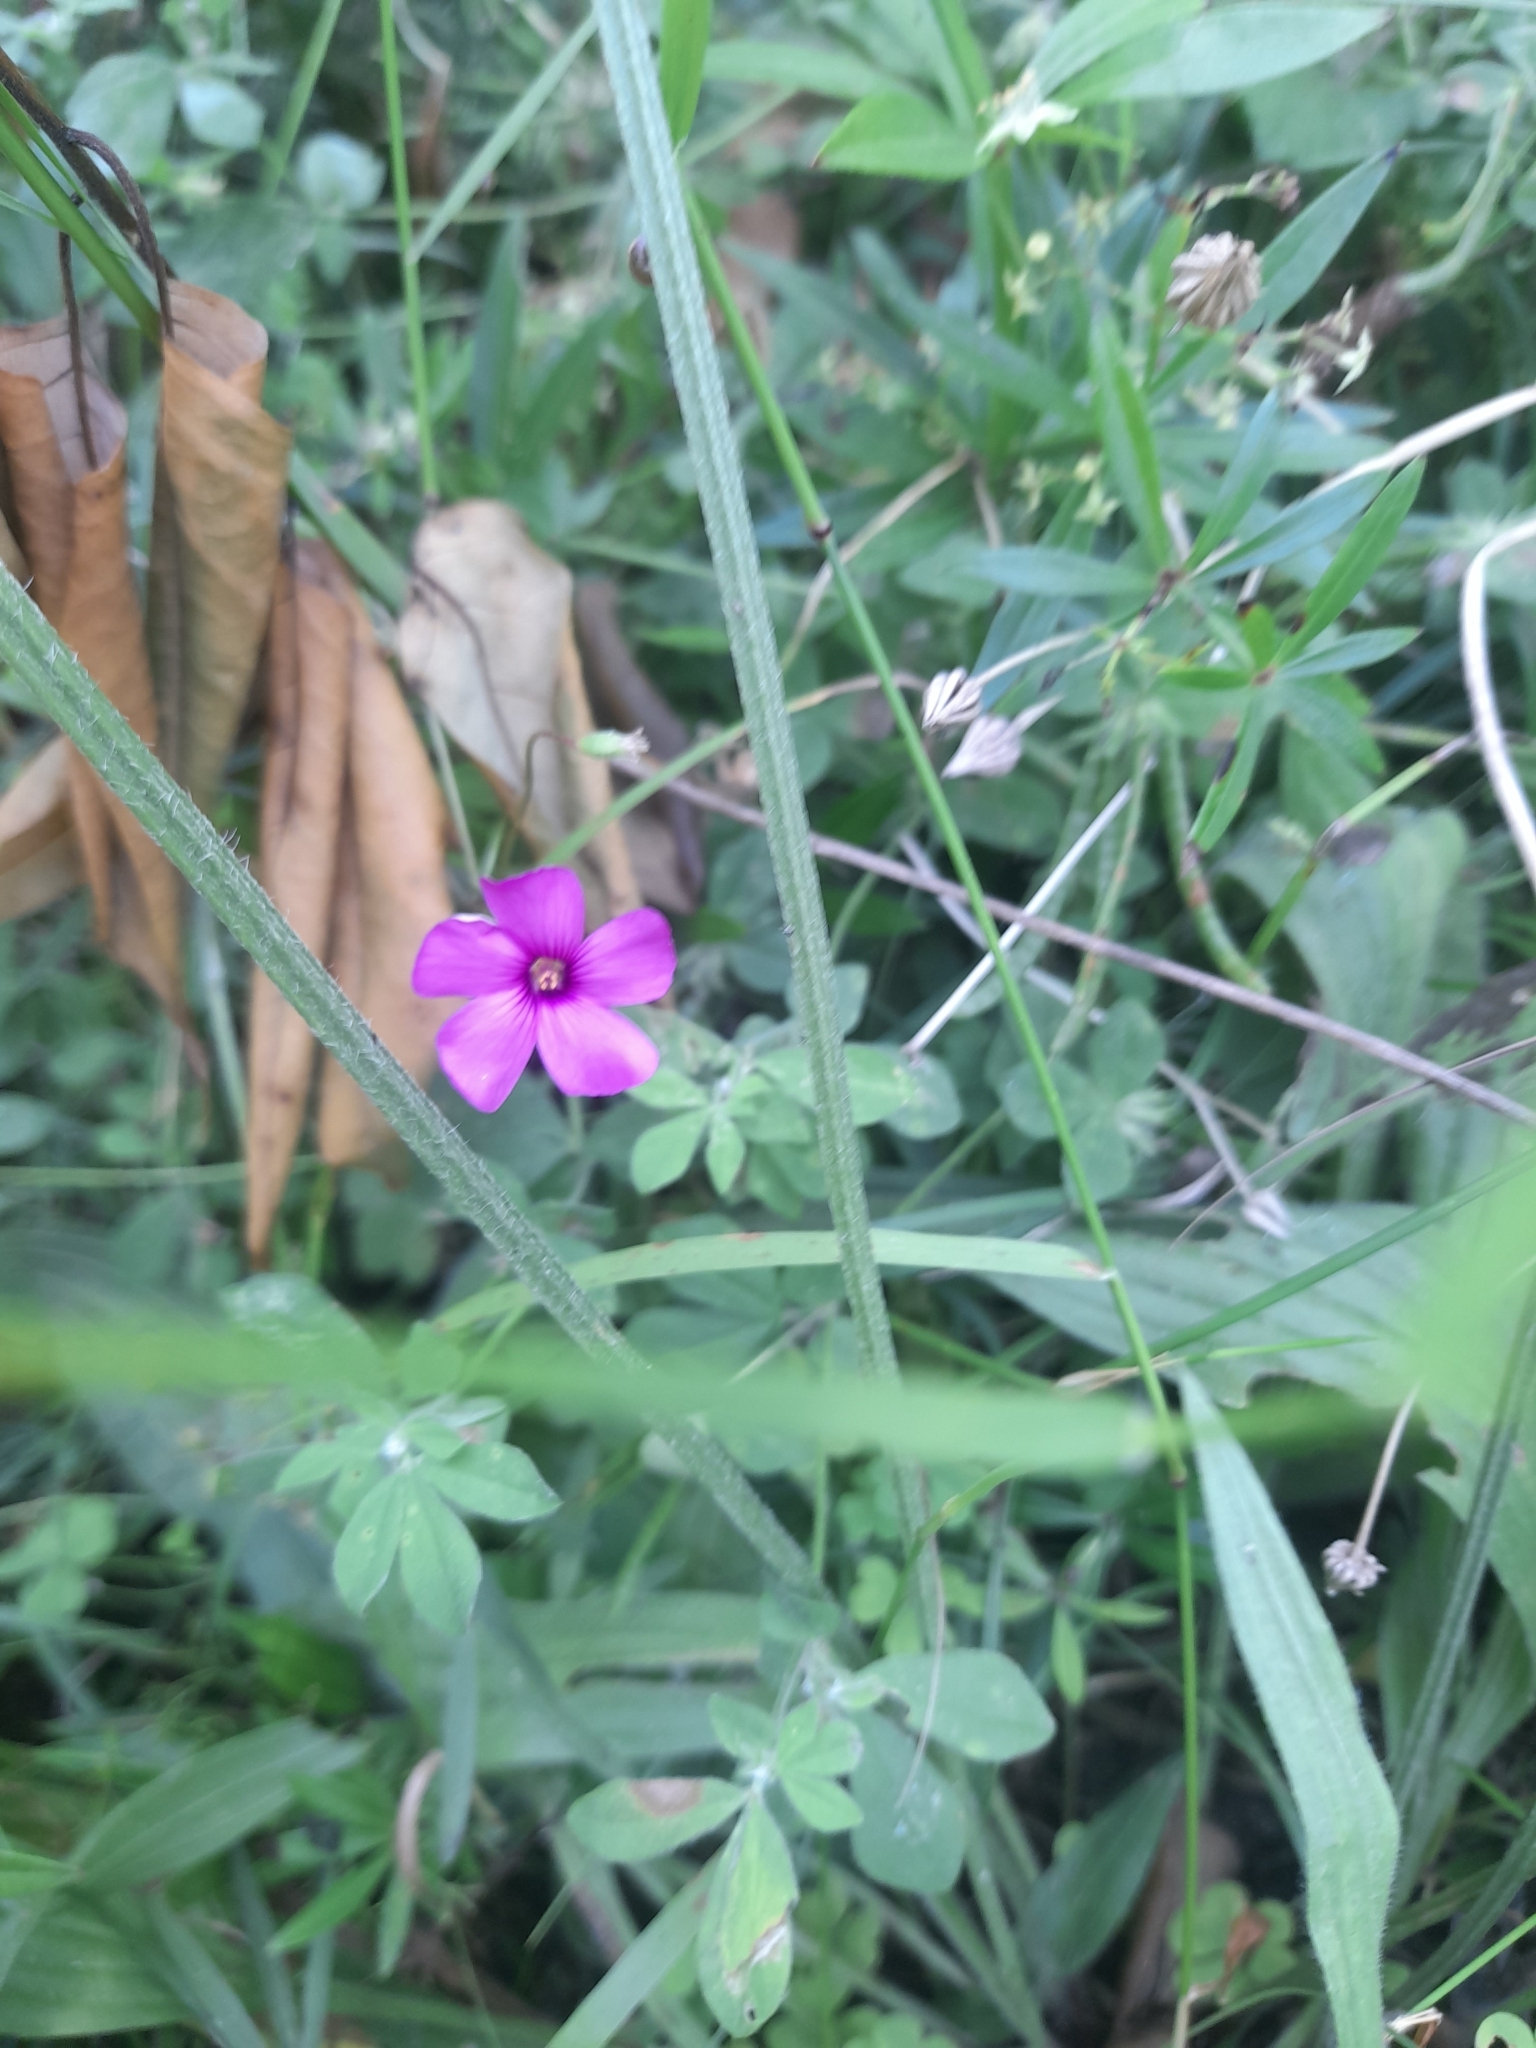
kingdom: Plantae
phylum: Tracheophyta
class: Magnoliopsida
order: Oxalidales
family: Oxalidaceae
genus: Oxalis
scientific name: Oxalis articulata
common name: Pink-sorrel
